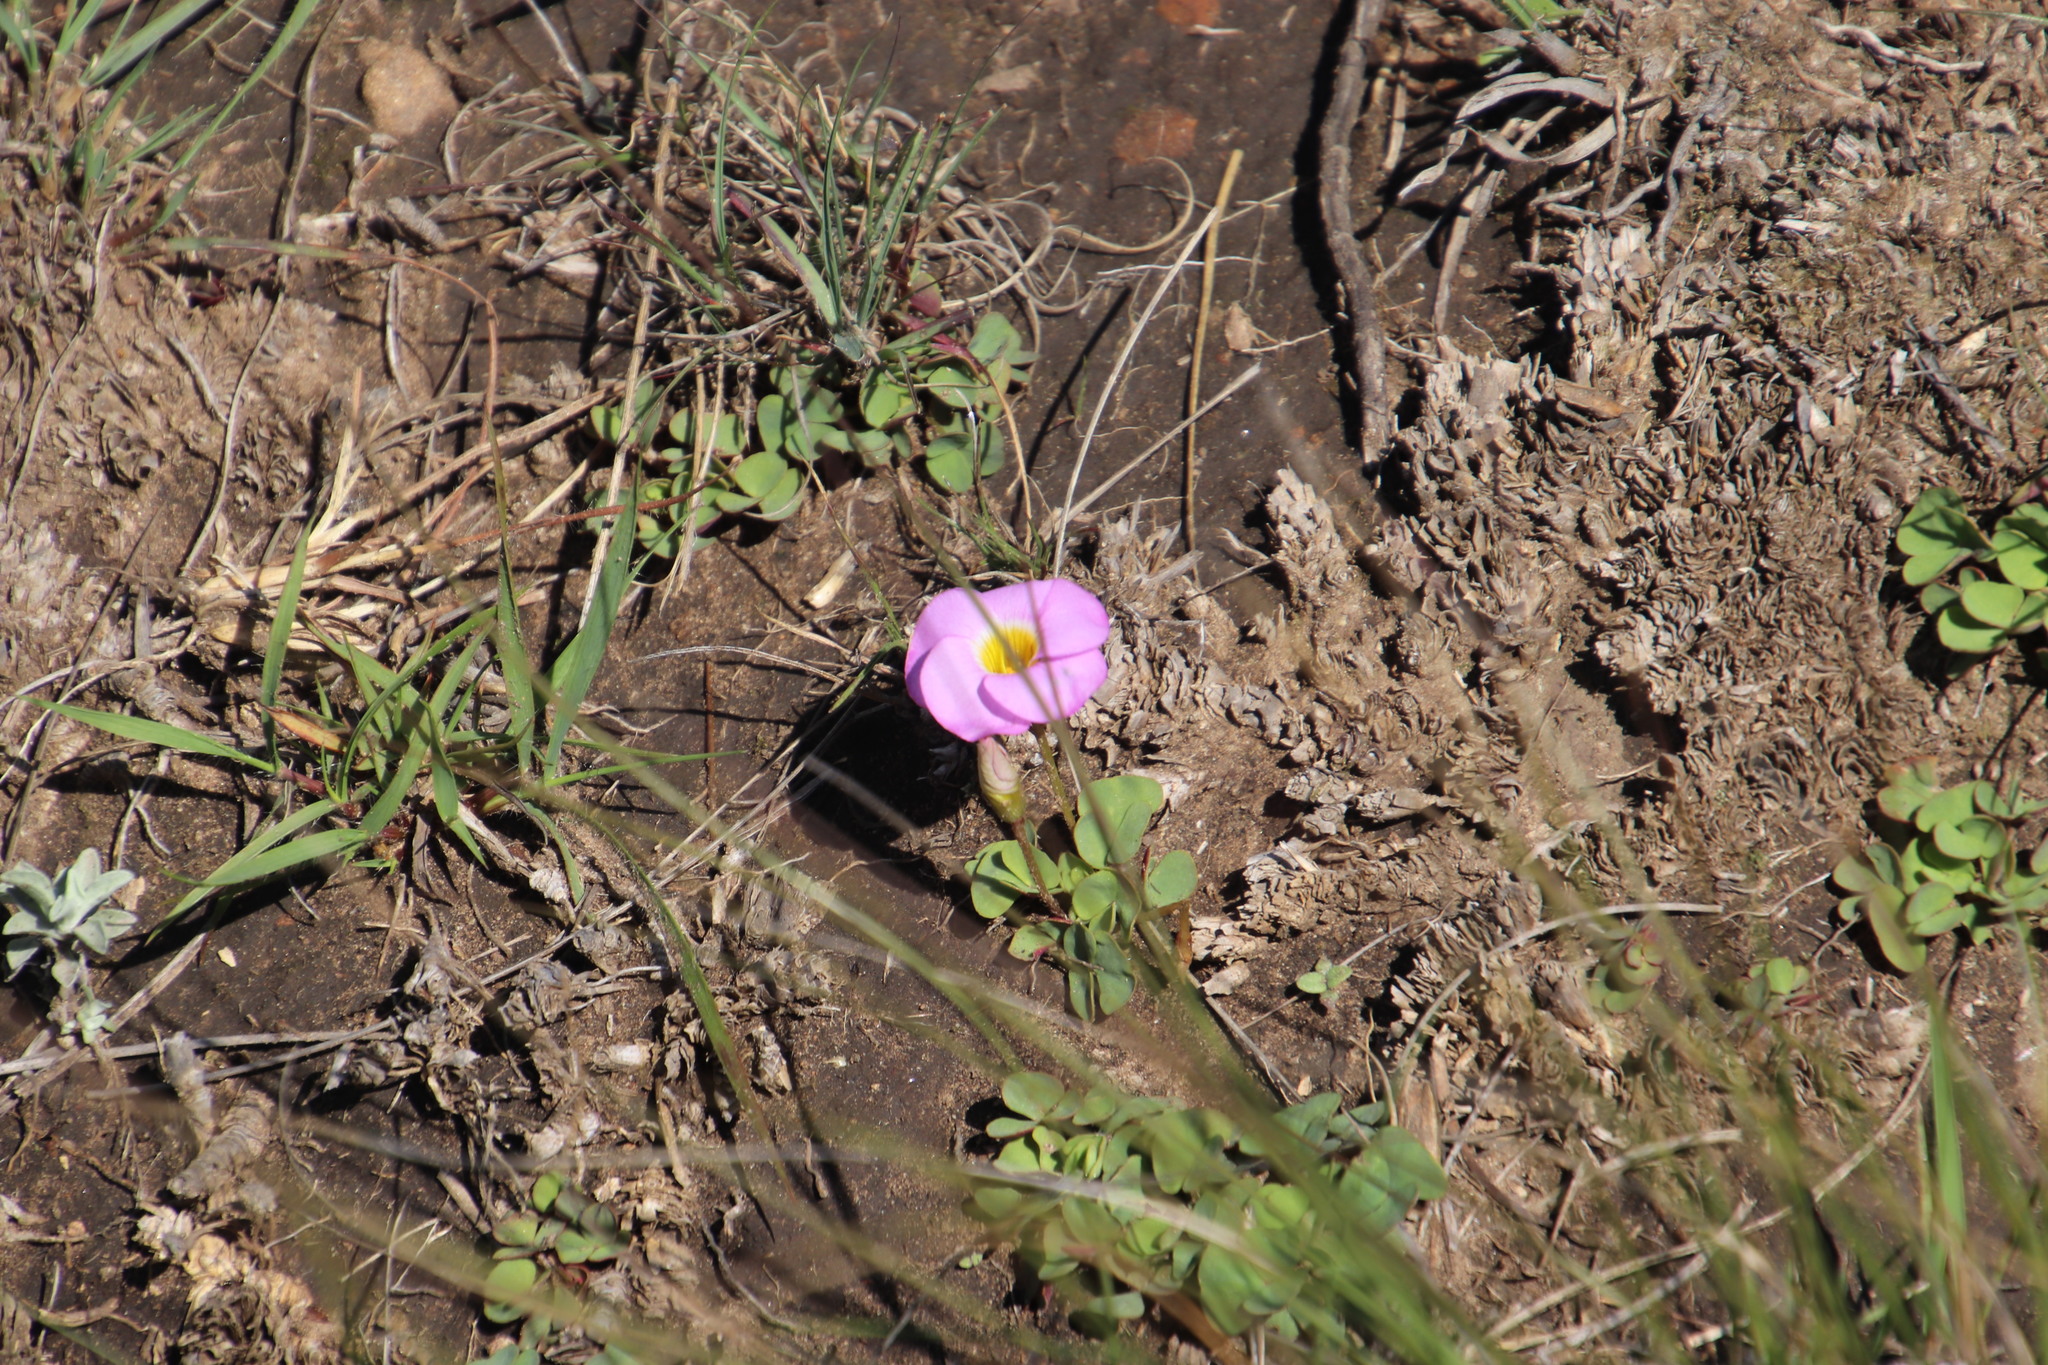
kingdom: Plantae
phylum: Tracheophyta
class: Magnoliopsida
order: Oxalidales
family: Oxalidaceae
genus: Oxalis
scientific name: Oxalis obliquifolia
